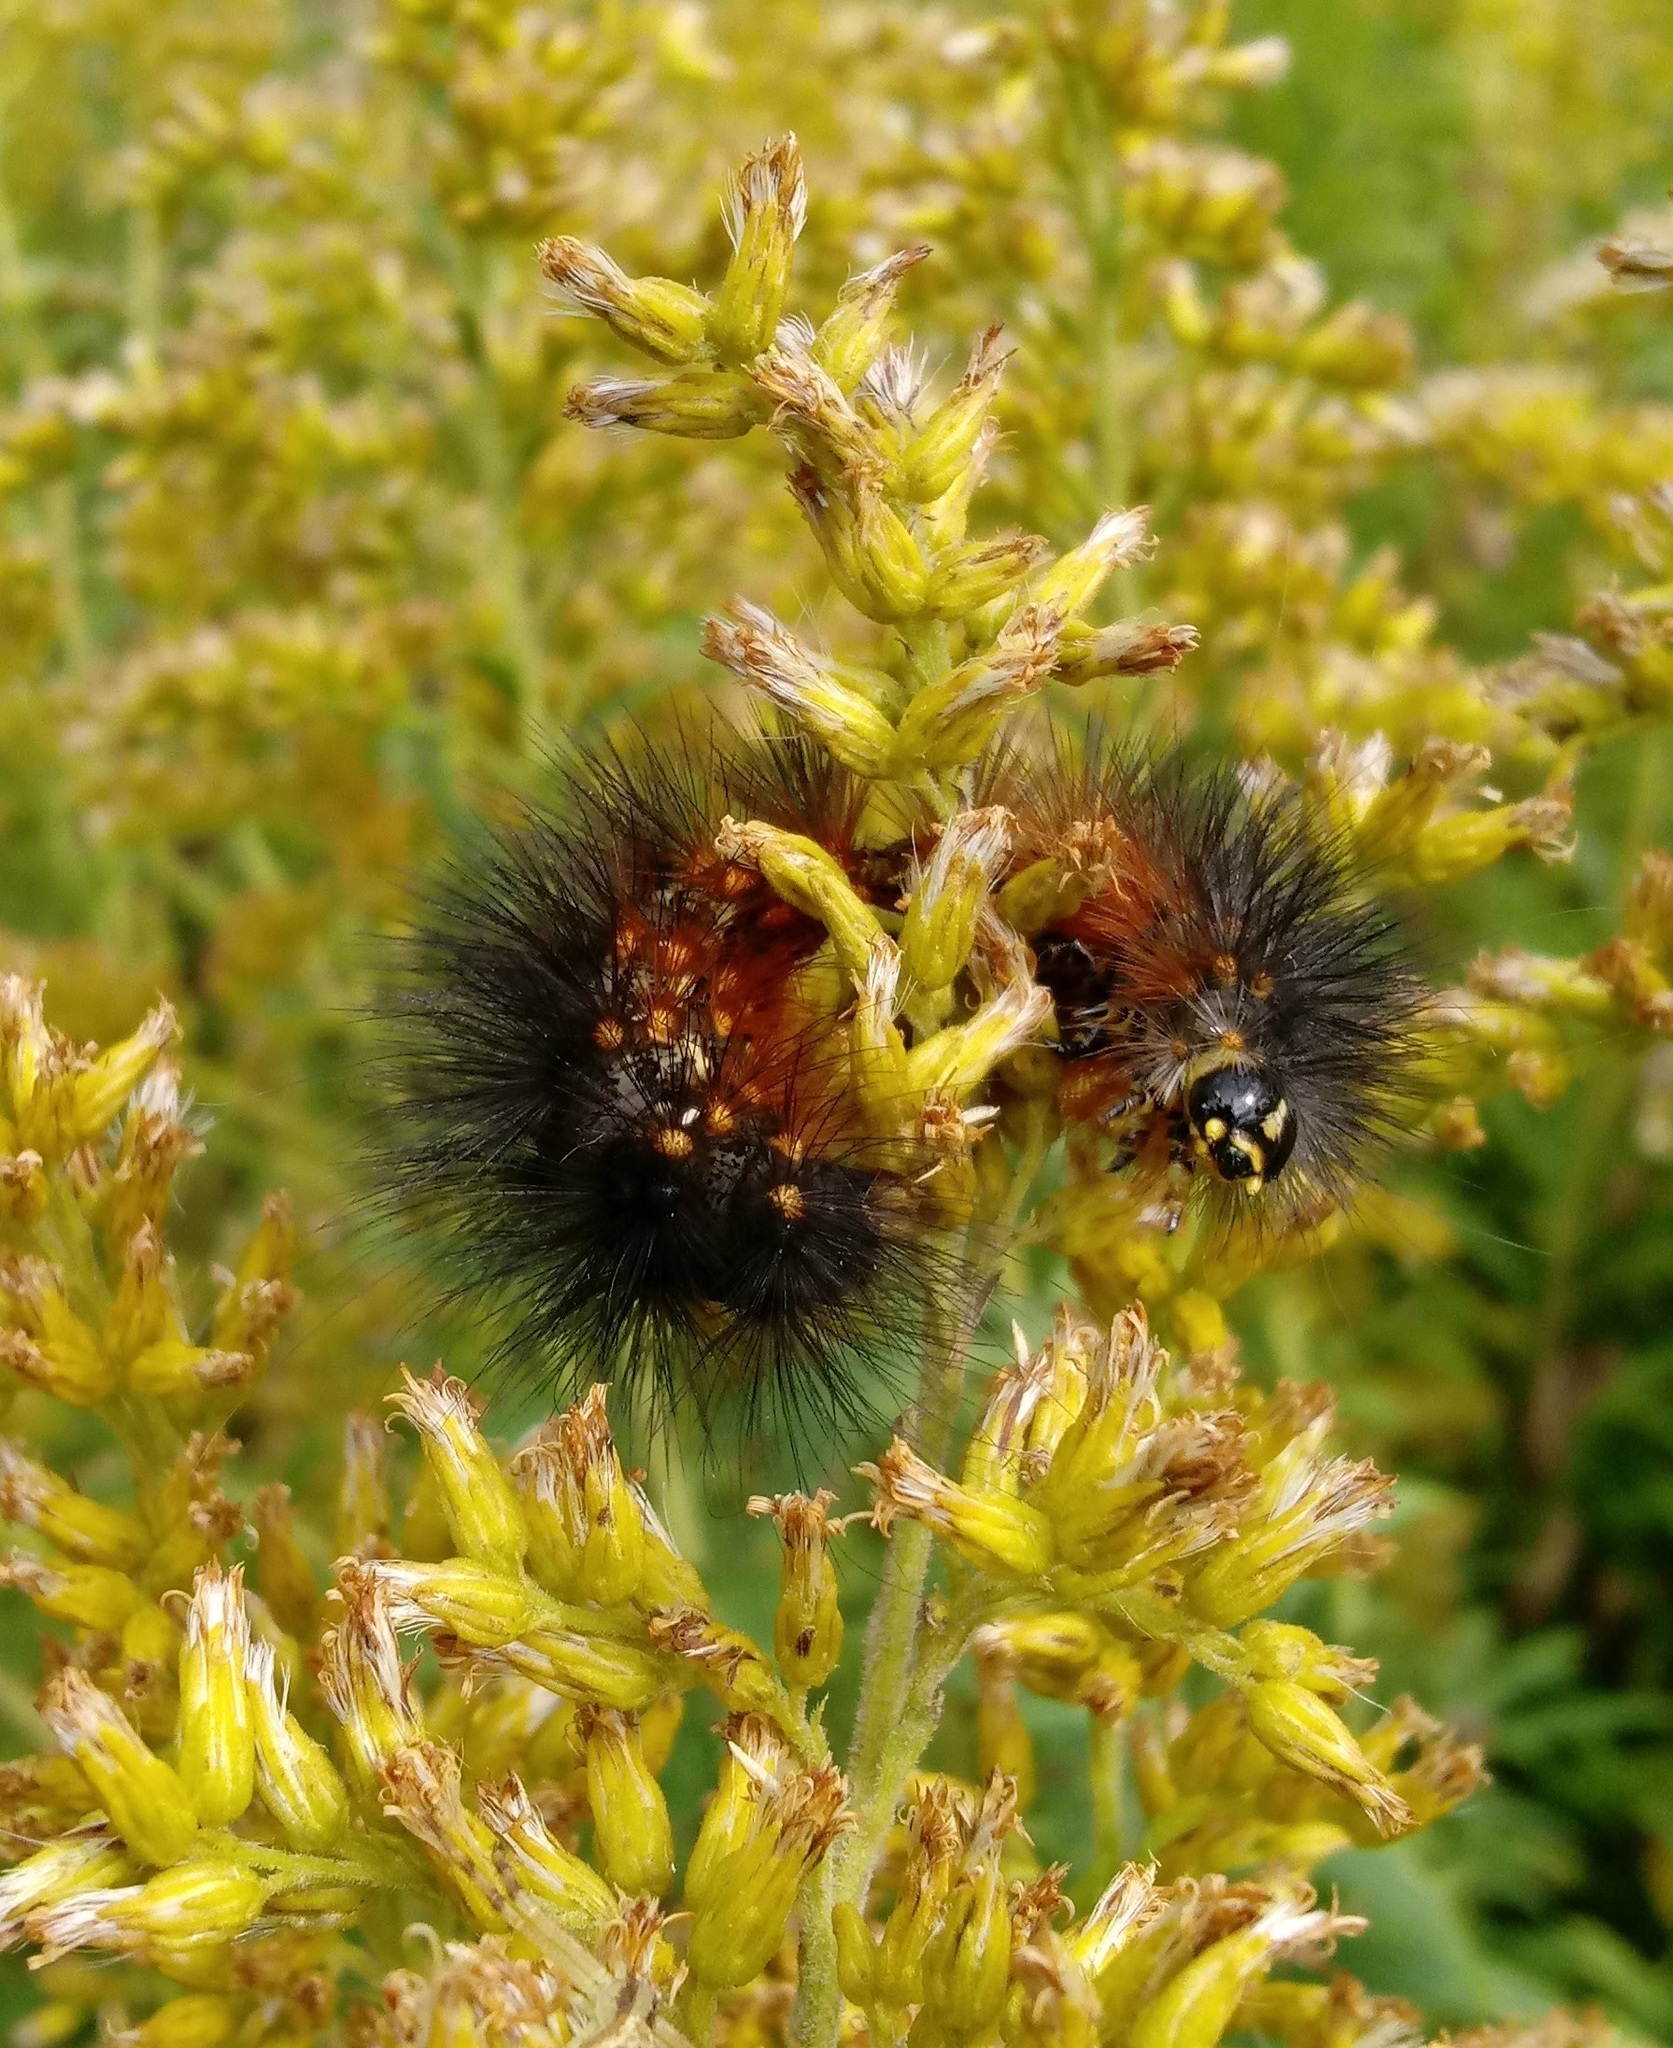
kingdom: Animalia
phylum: Arthropoda
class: Insecta
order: Lepidoptera
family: Erebidae
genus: Estigmene
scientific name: Estigmene acrea
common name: Salt marsh moth
